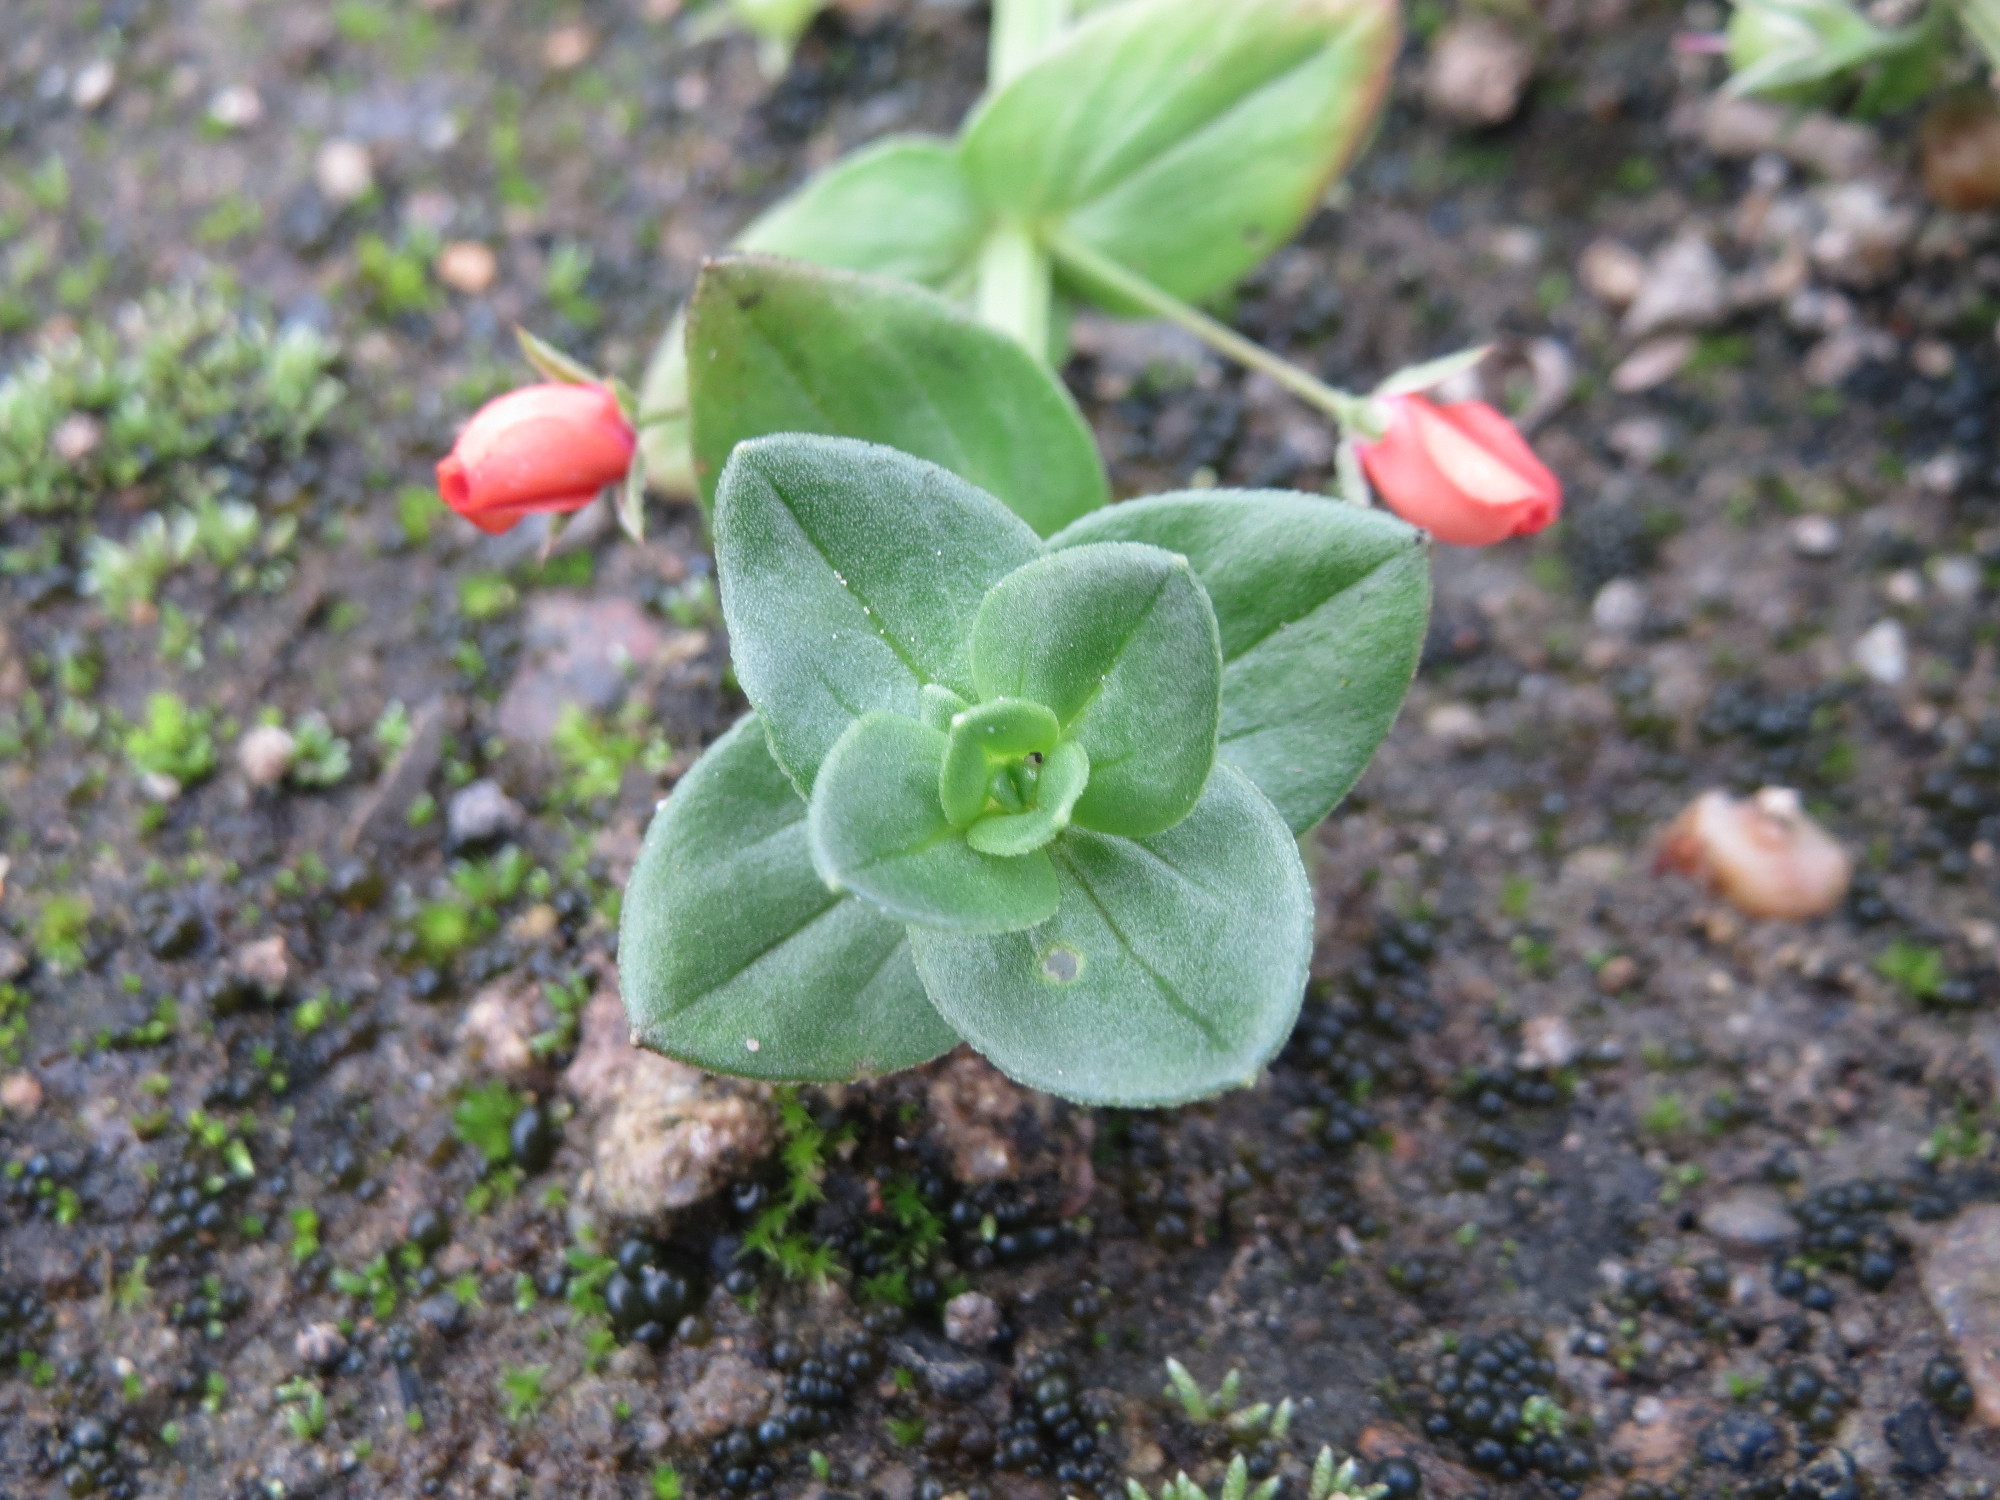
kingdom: Plantae
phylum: Tracheophyta
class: Magnoliopsida
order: Ericales
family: Primulaceae
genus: Lysimachia
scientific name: Lysimachia arvensis
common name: Scarlet pimpernel
